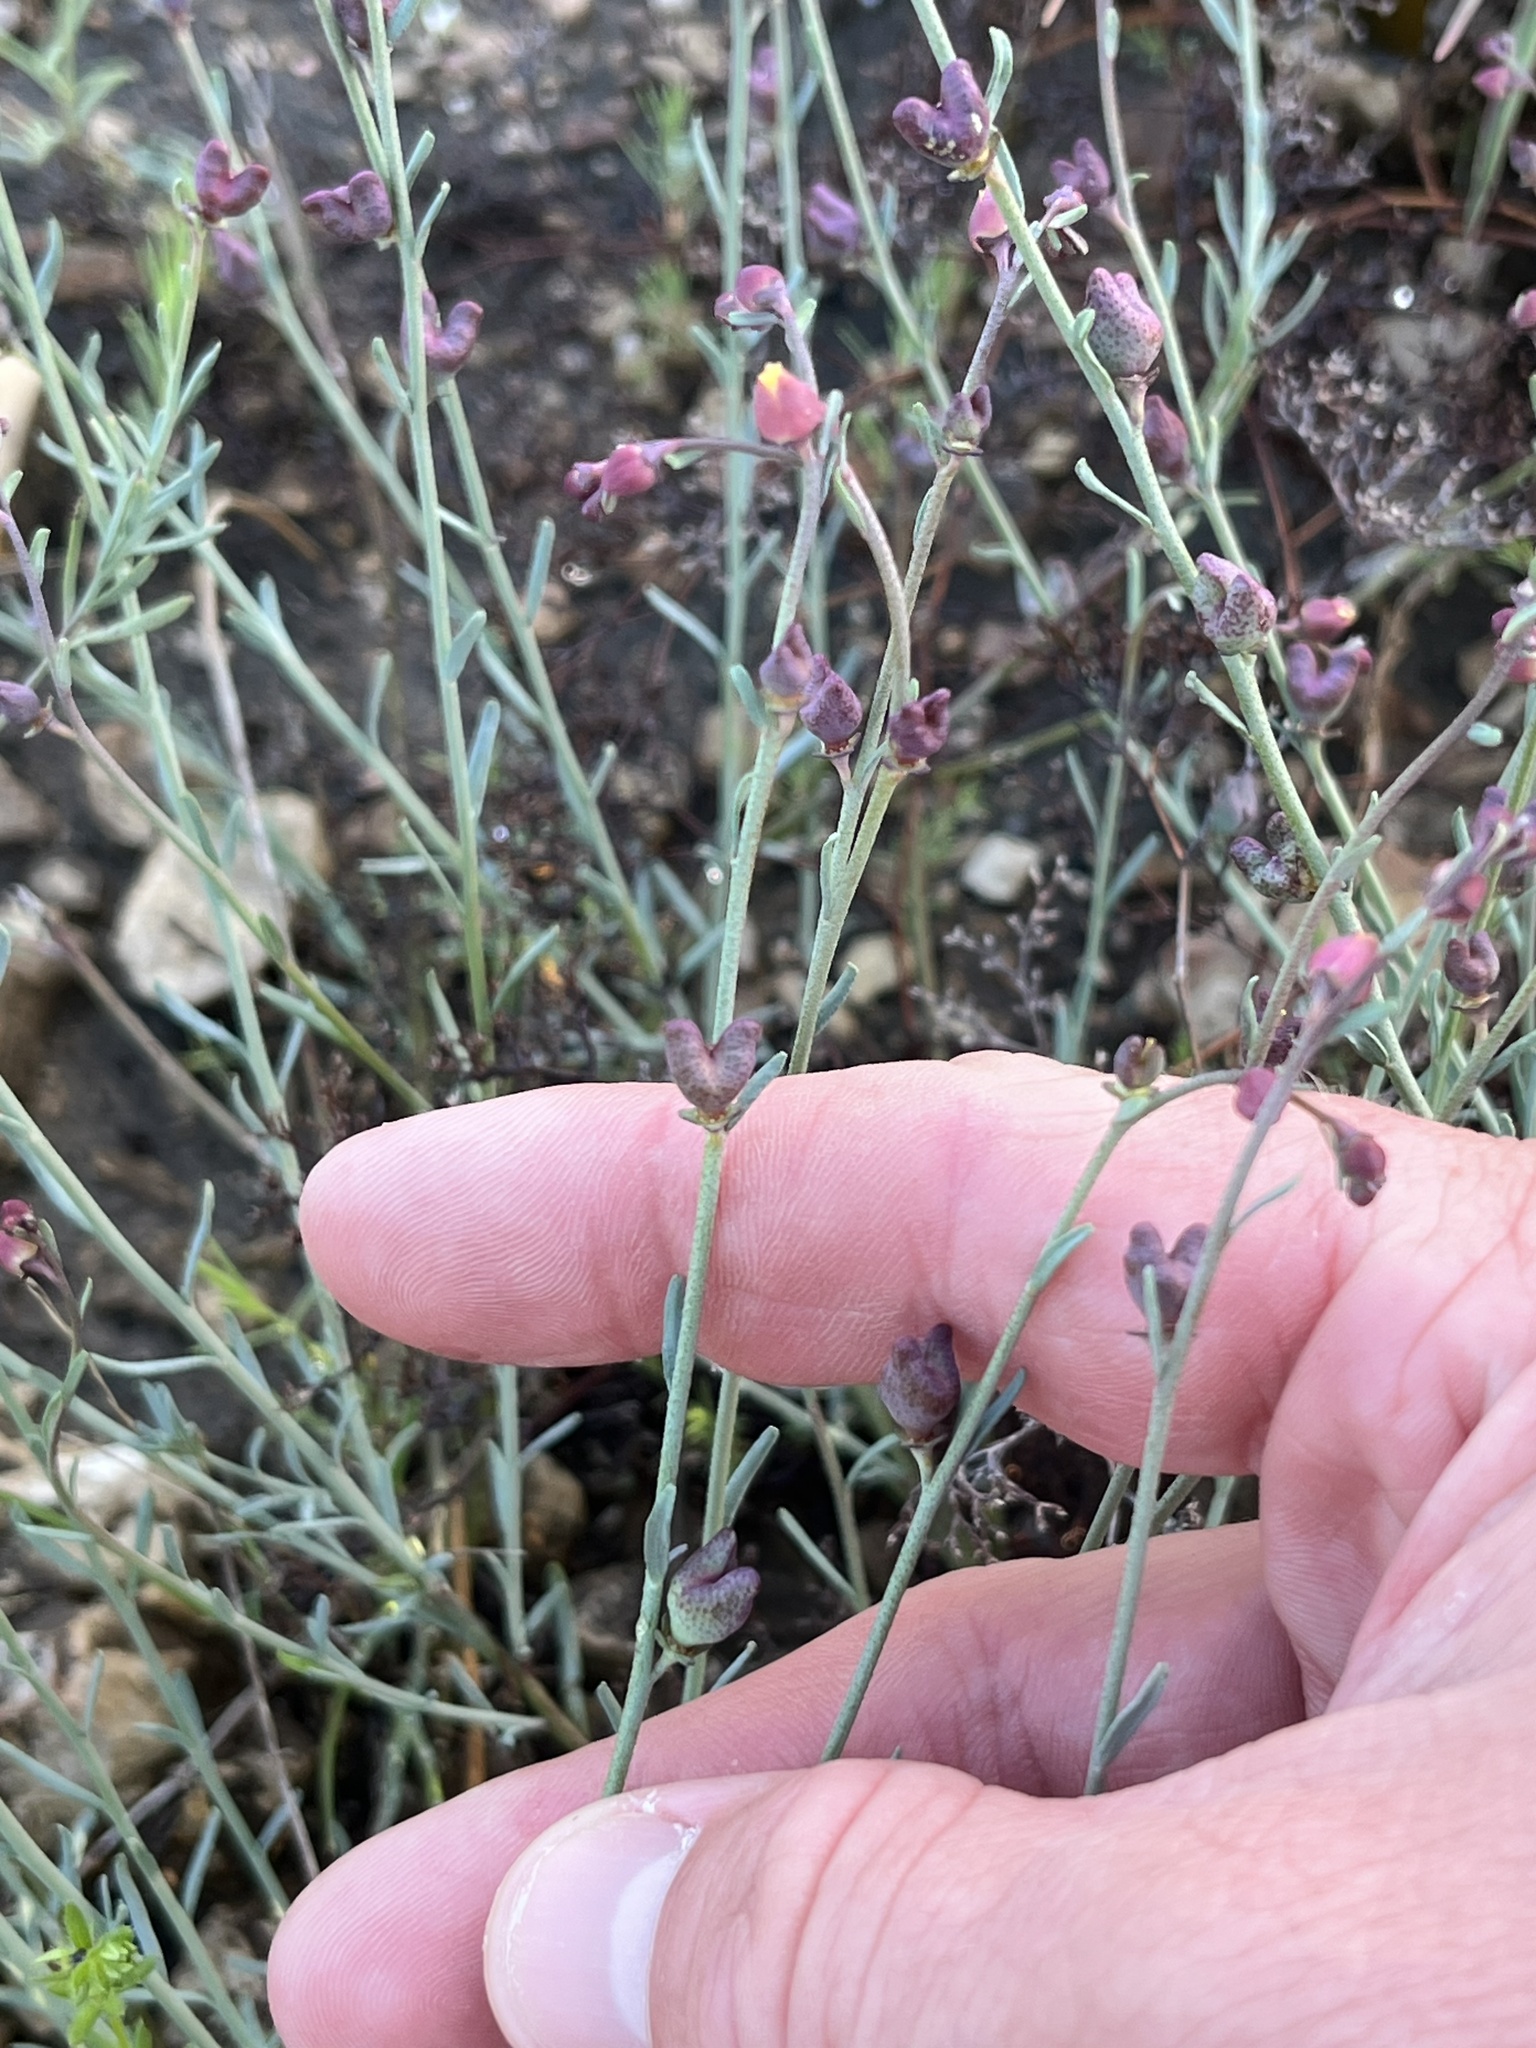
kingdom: Plantae
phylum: Tracheophyta
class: Magnoliopsida
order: Sapindales
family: Rutaceae
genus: Thamnosma
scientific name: Thamnosma texana
